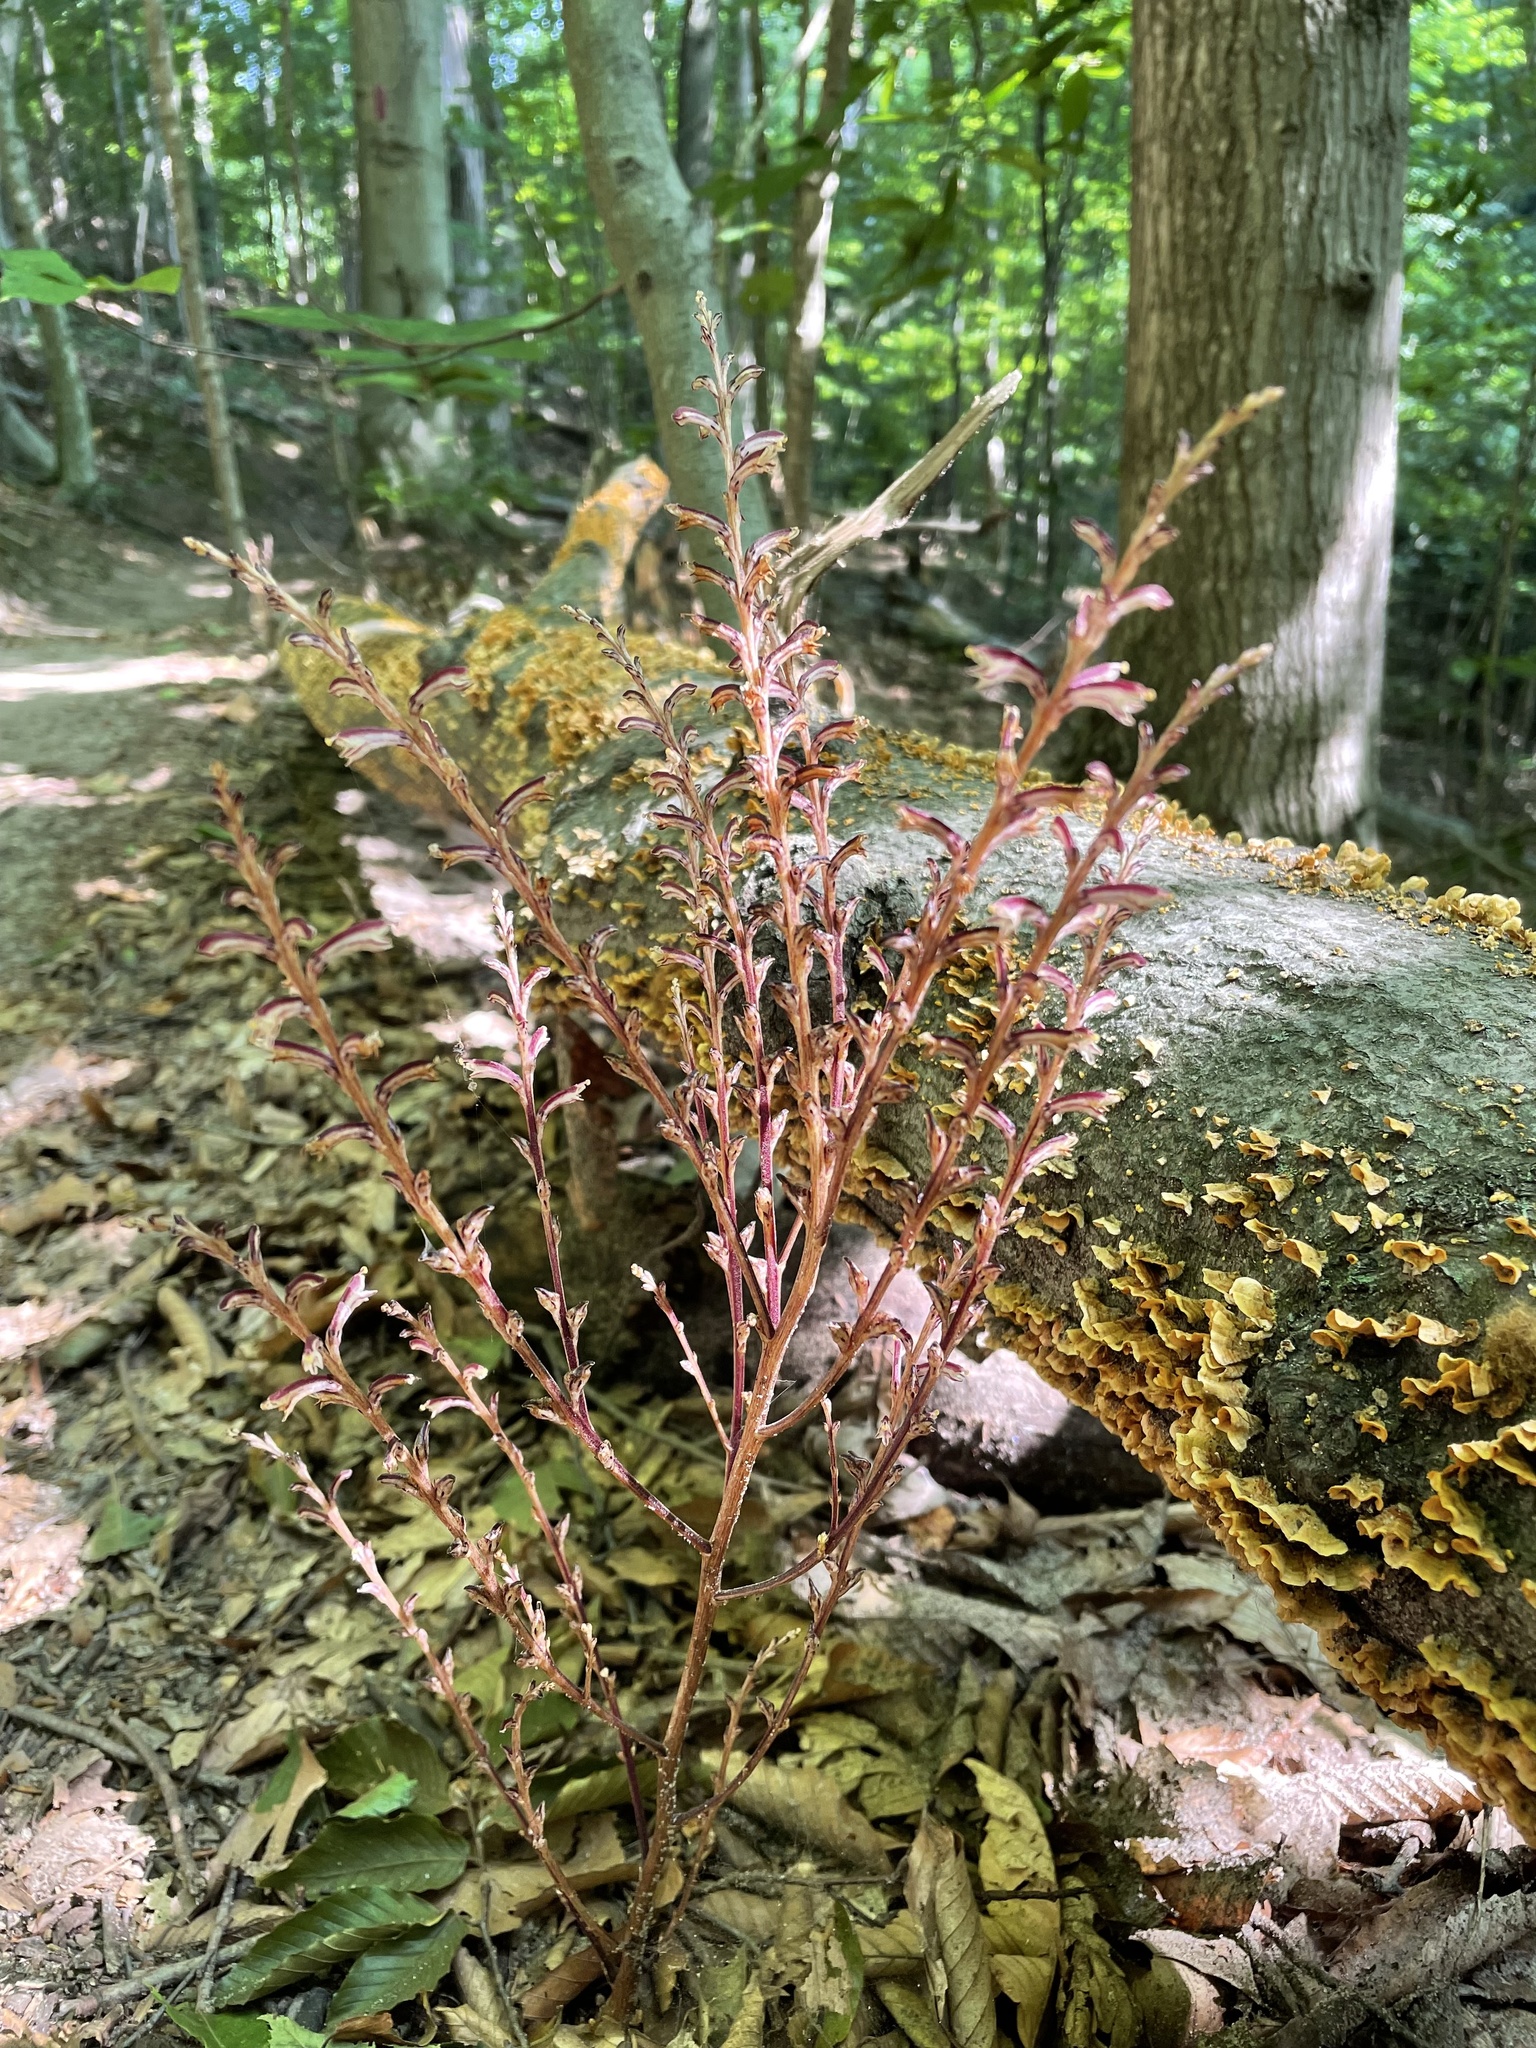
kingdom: Plantae
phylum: Tracheophyta
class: Magnoliopsida
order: Lamiales
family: Orobanchaceae
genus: Epifagus
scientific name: Epifagus virginiana
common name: Beechdrops
